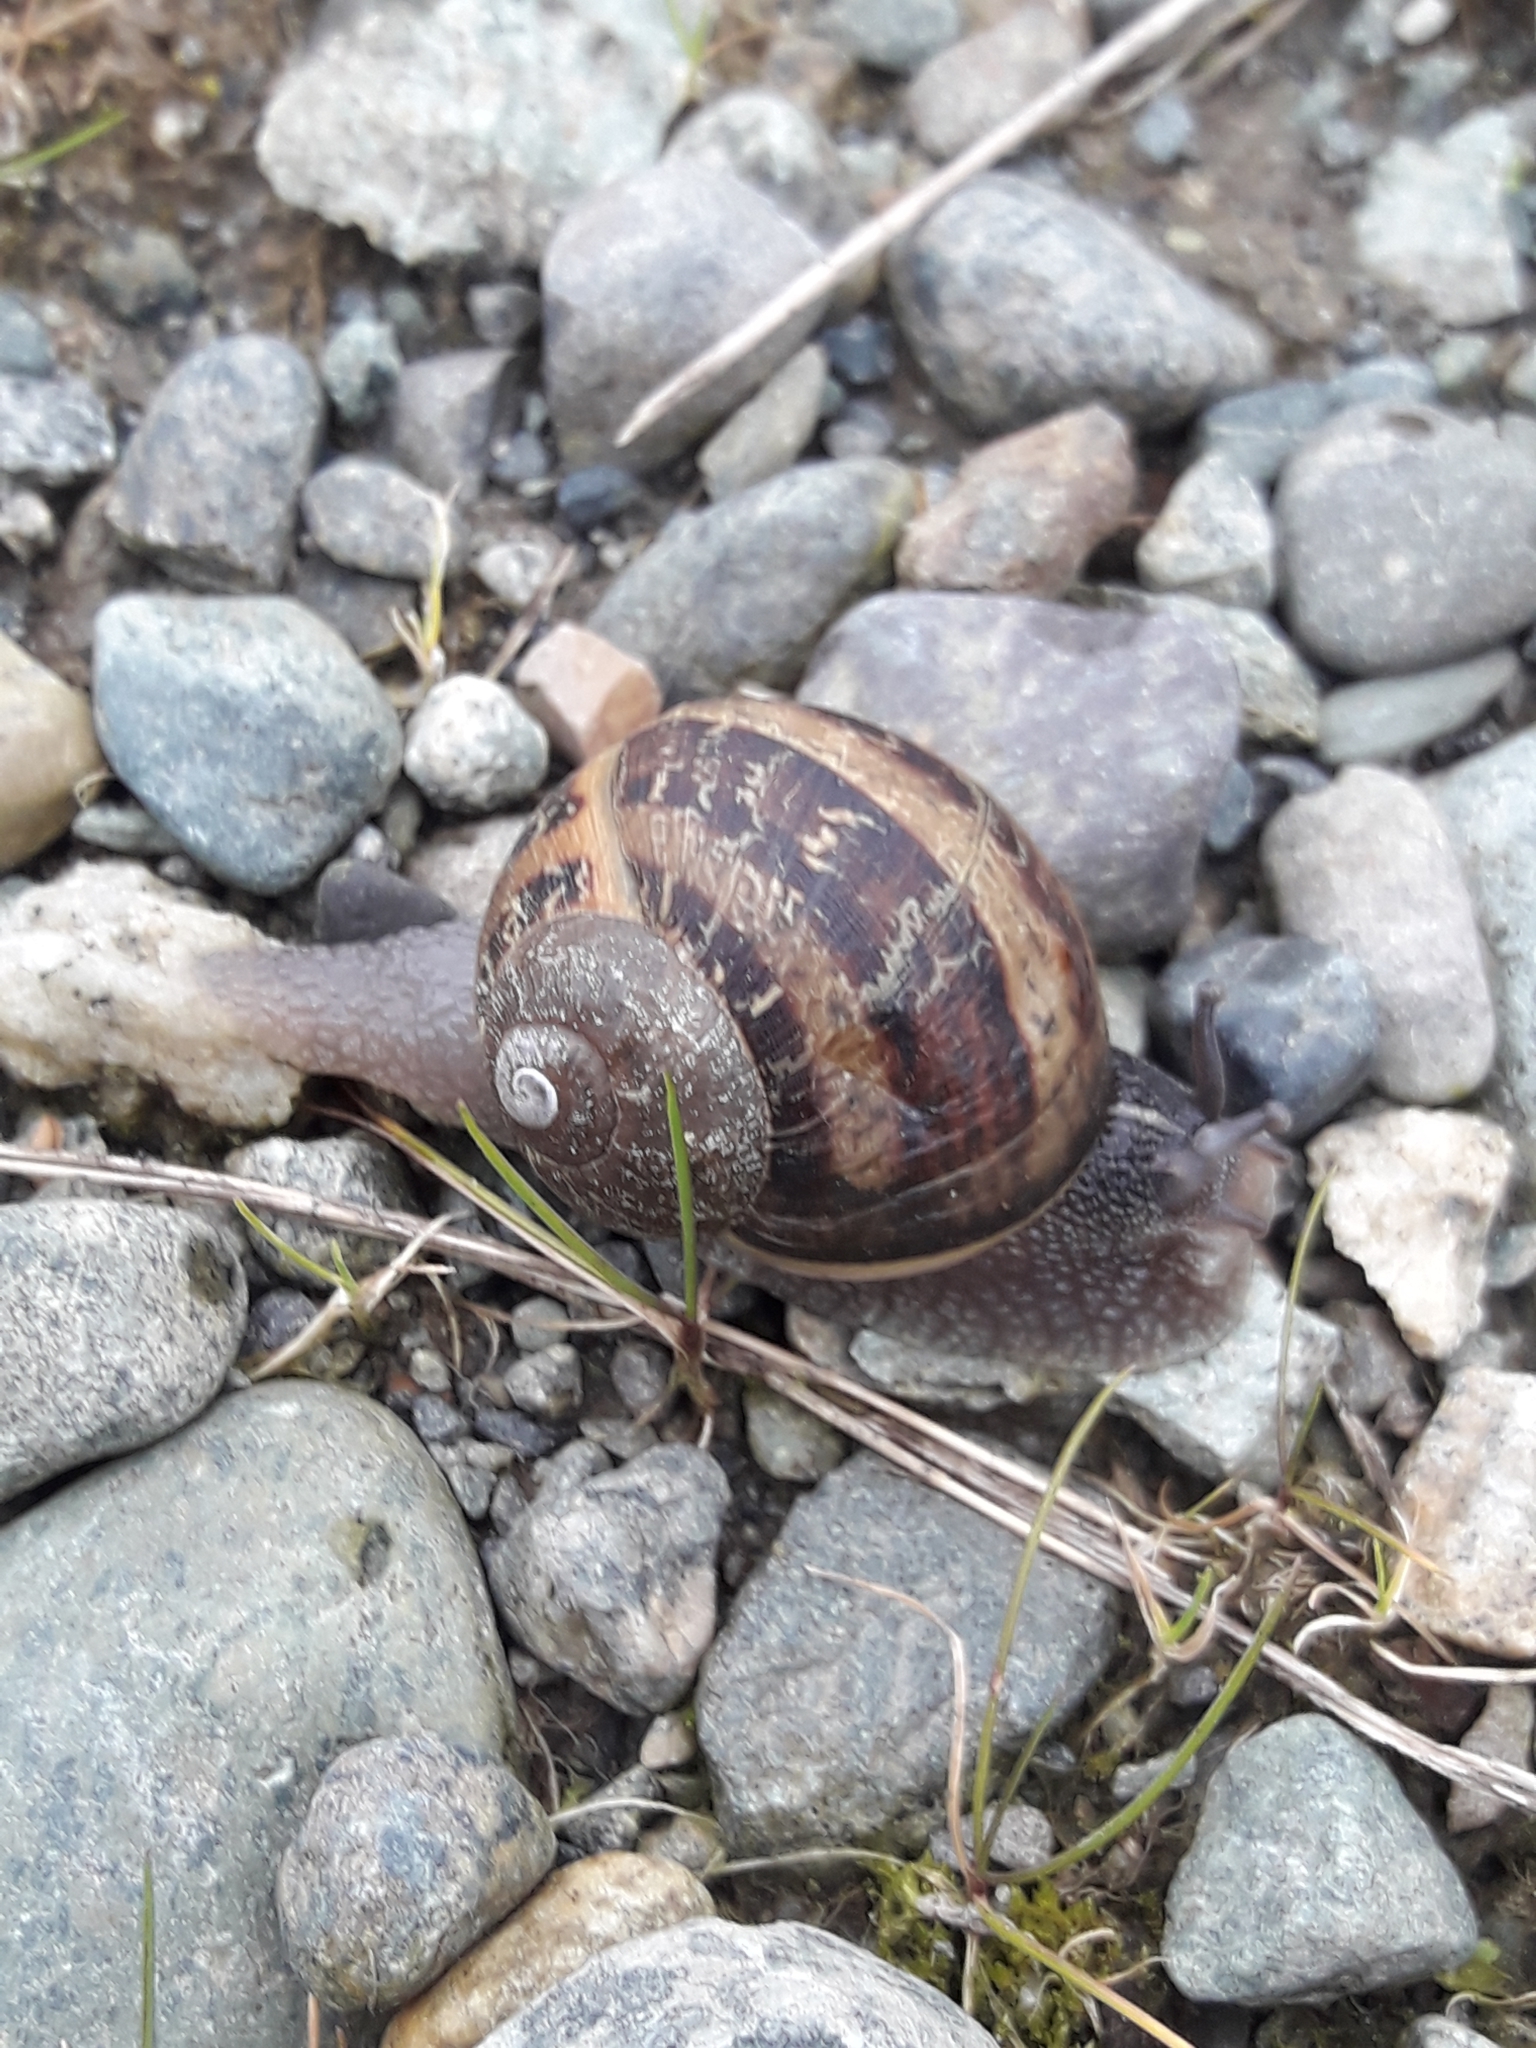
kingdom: Animalia
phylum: Mollusca
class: Gastropoda
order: Stylommatophora
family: Helicidae
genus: Cornu
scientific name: Cornu aspersum
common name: Brown garden snail
